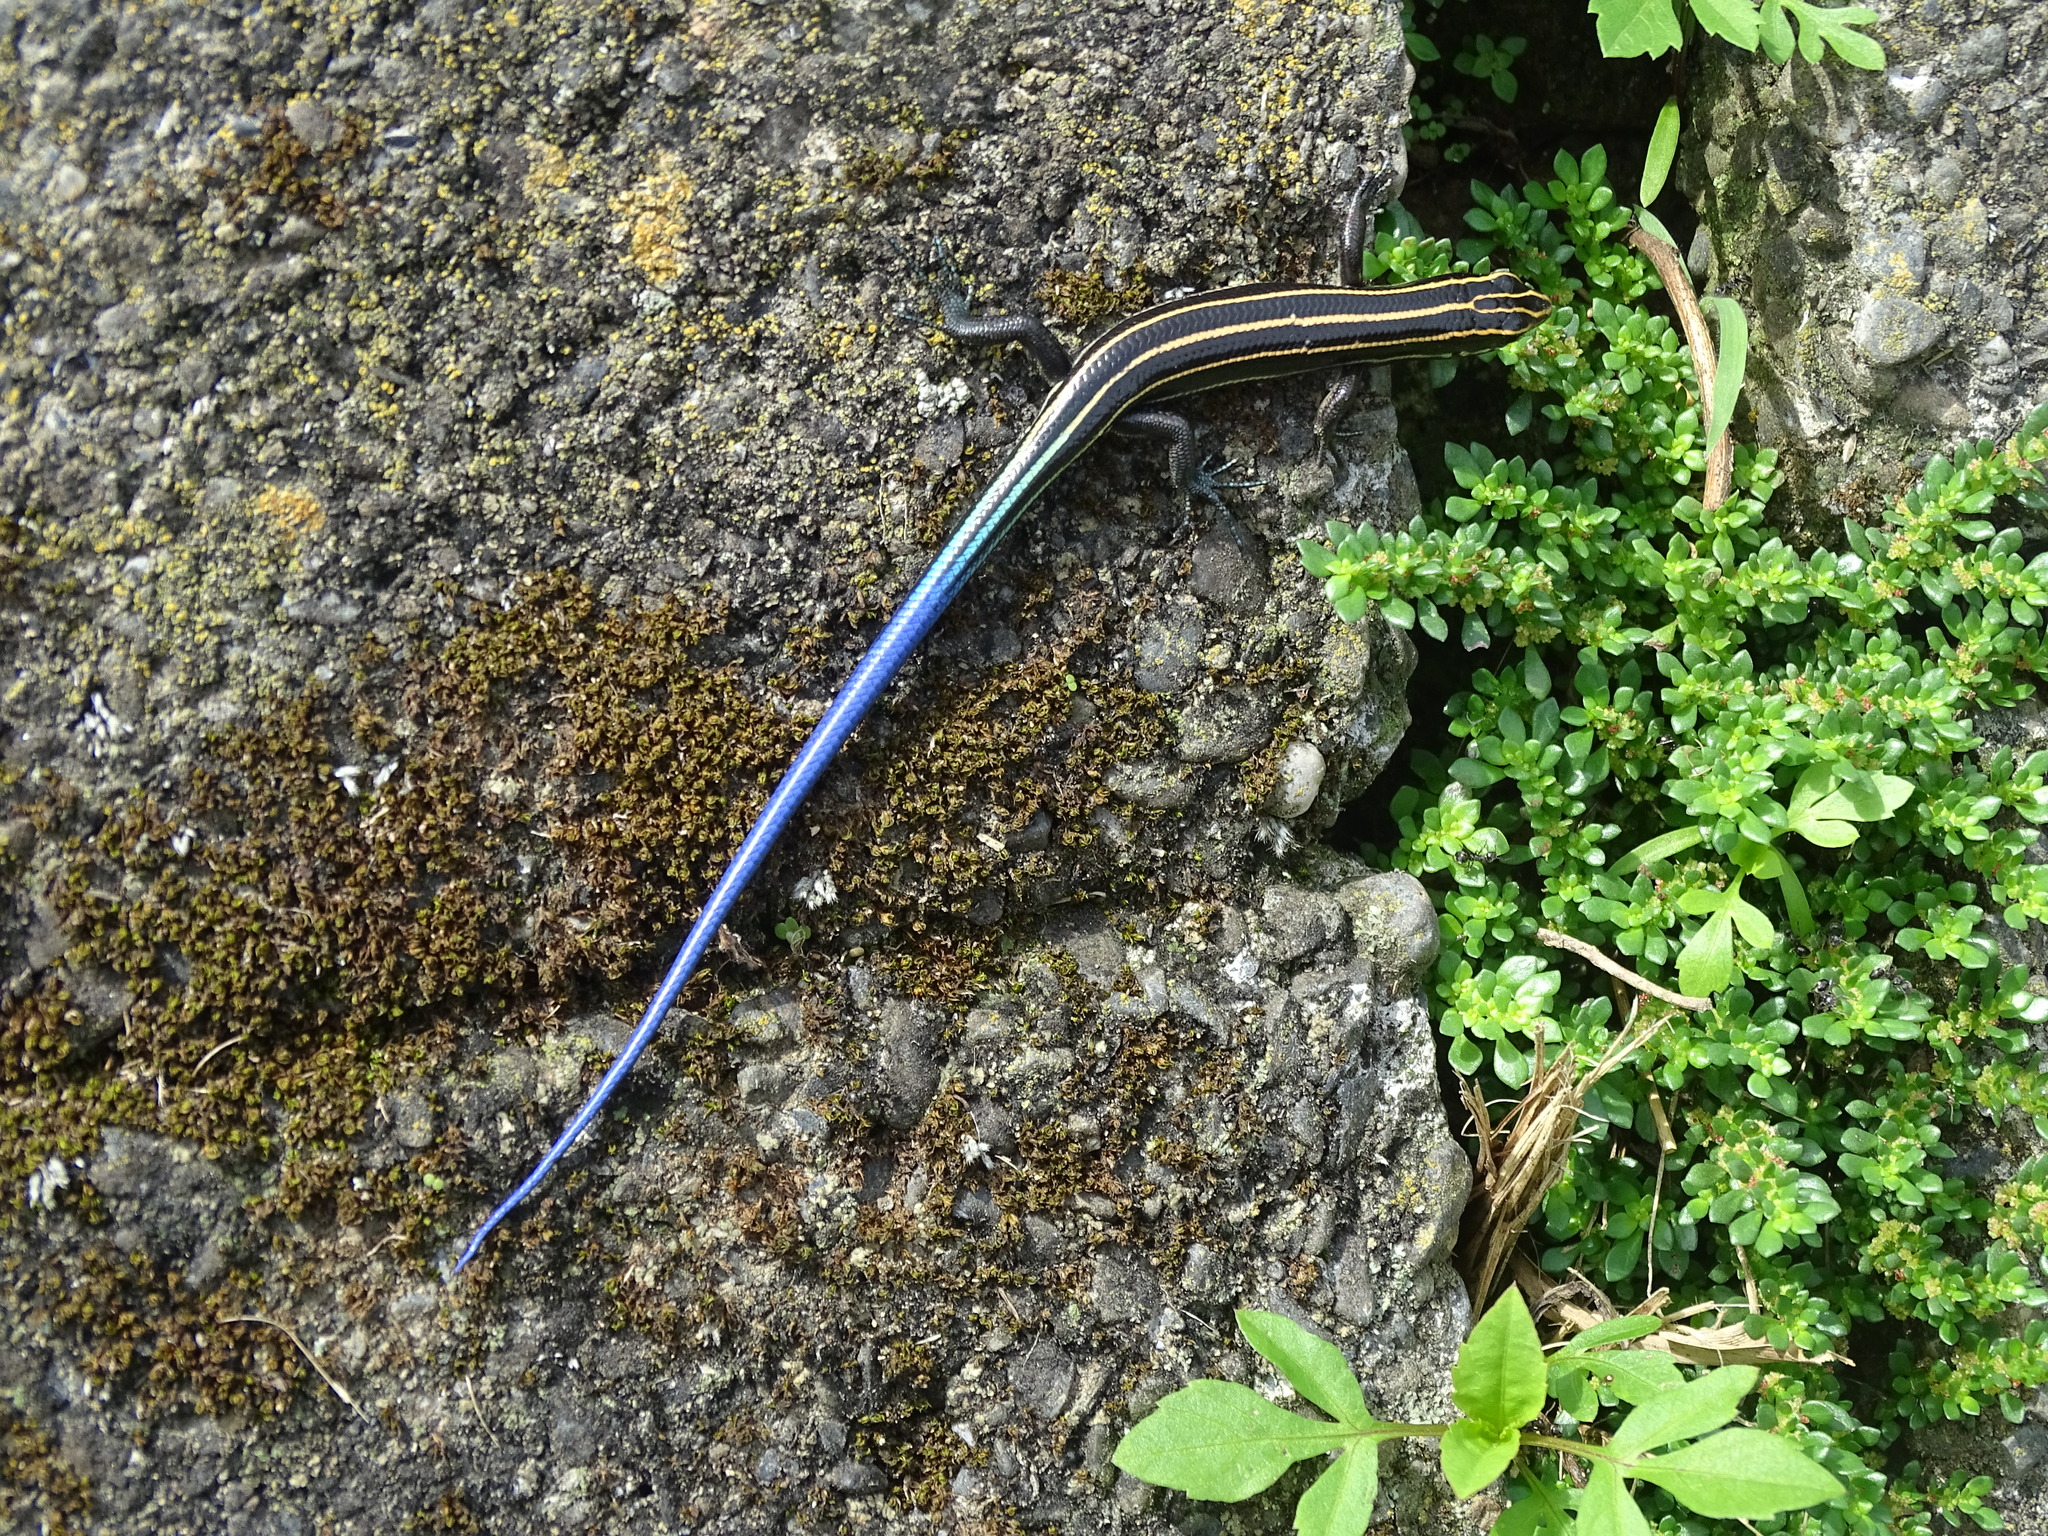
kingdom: Animalia
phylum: Chordata
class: Squamata
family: Scincidae
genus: Plestiodon
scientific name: Plestiodon elegans
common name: Shanghai elegant skink
